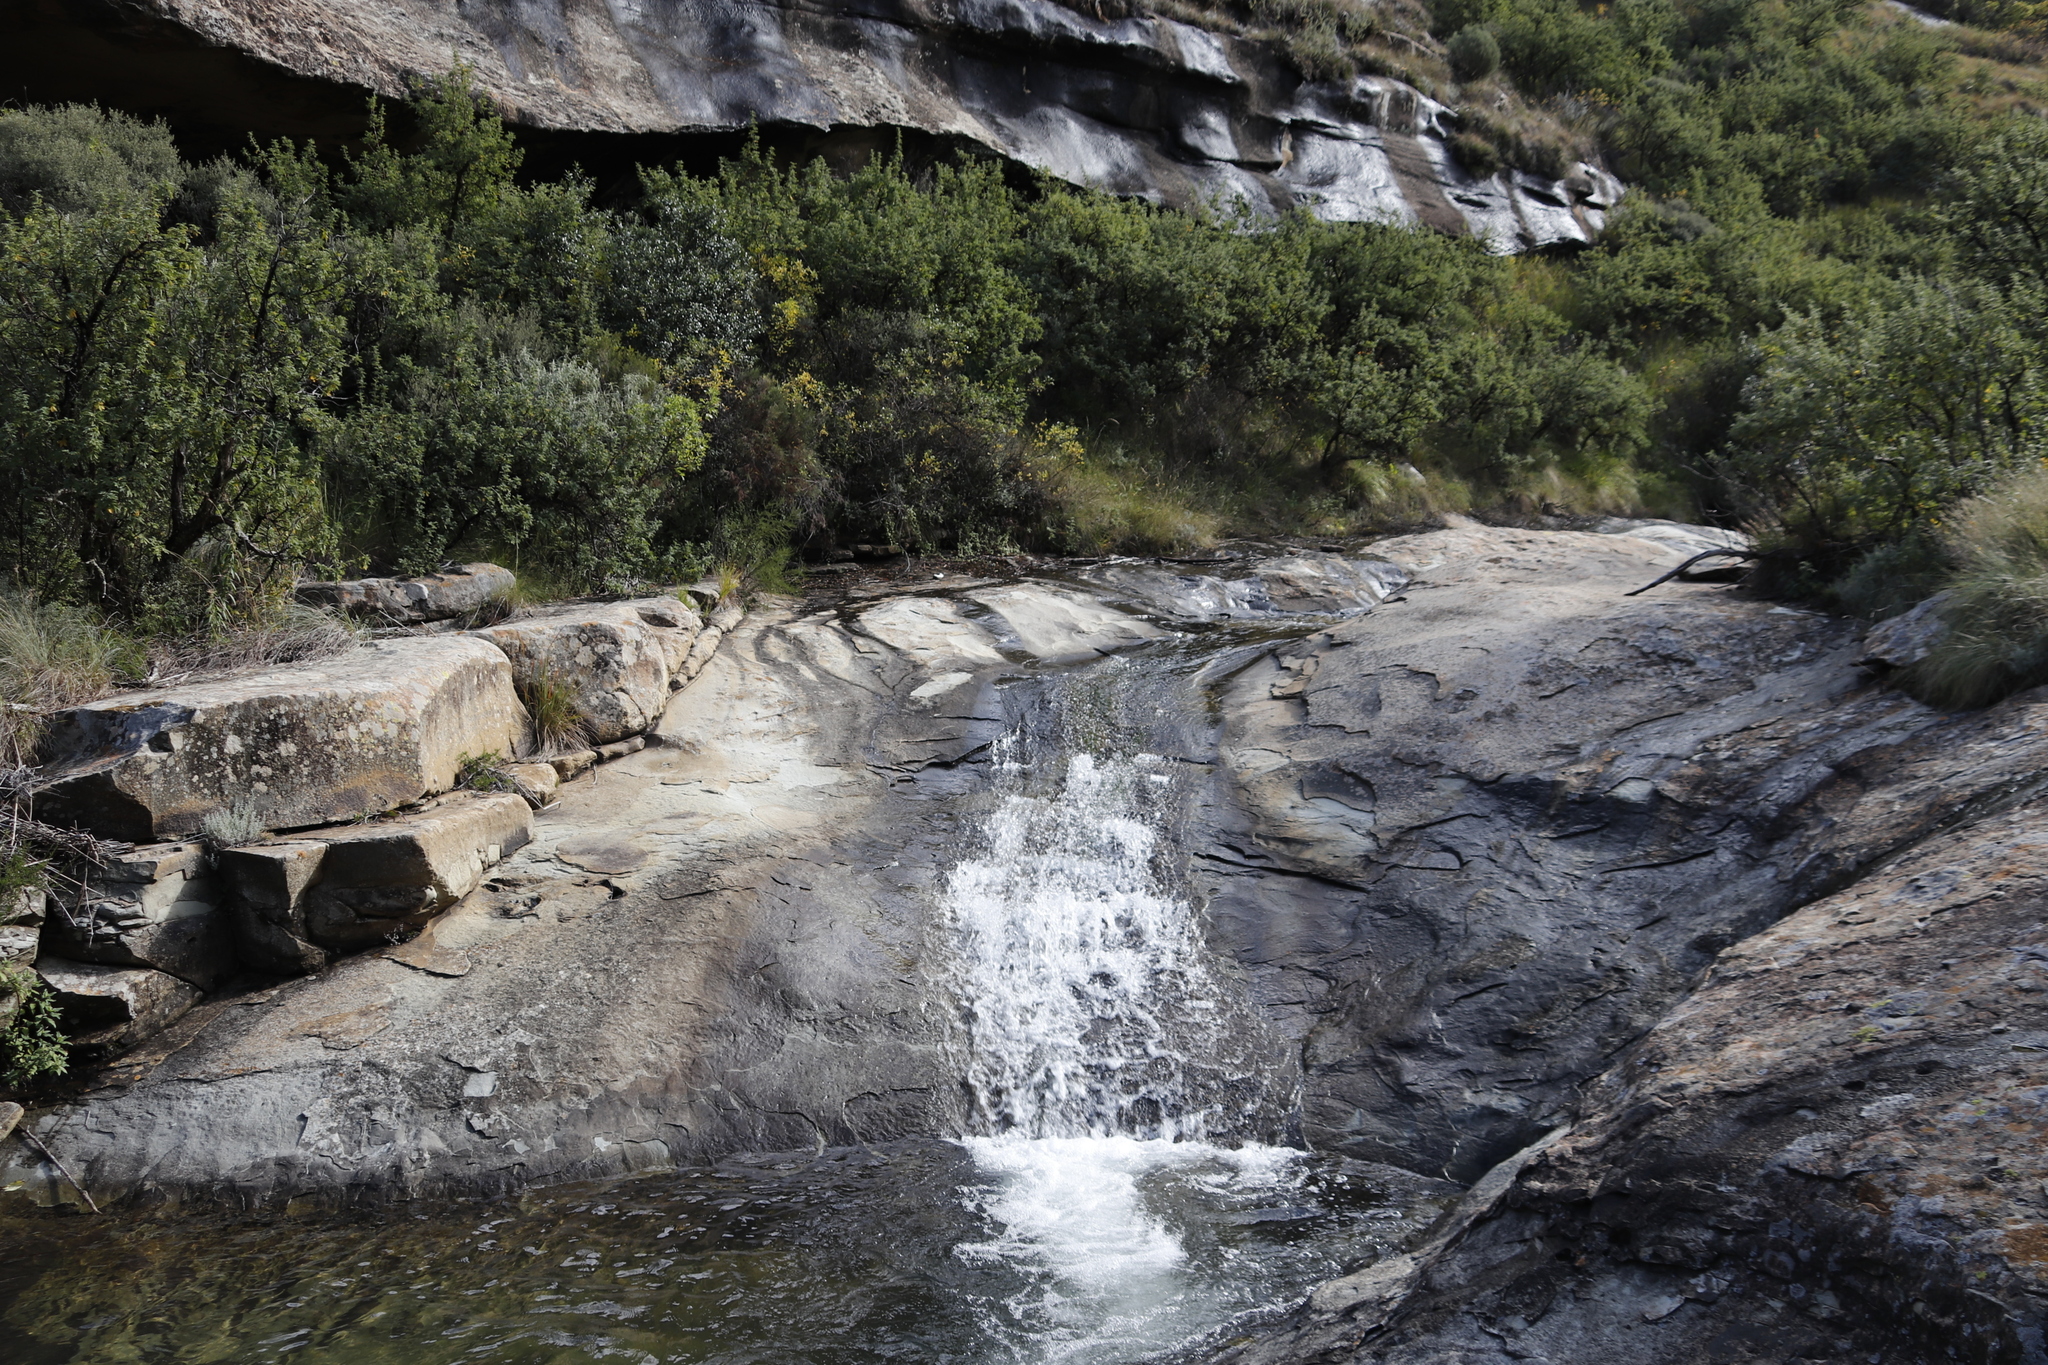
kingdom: Plantae
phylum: Tracheophyta
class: Magnoliopsida
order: Rosales
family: Rosaceae
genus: Leucosidea
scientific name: Leucosidea sericea
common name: Oldwood
